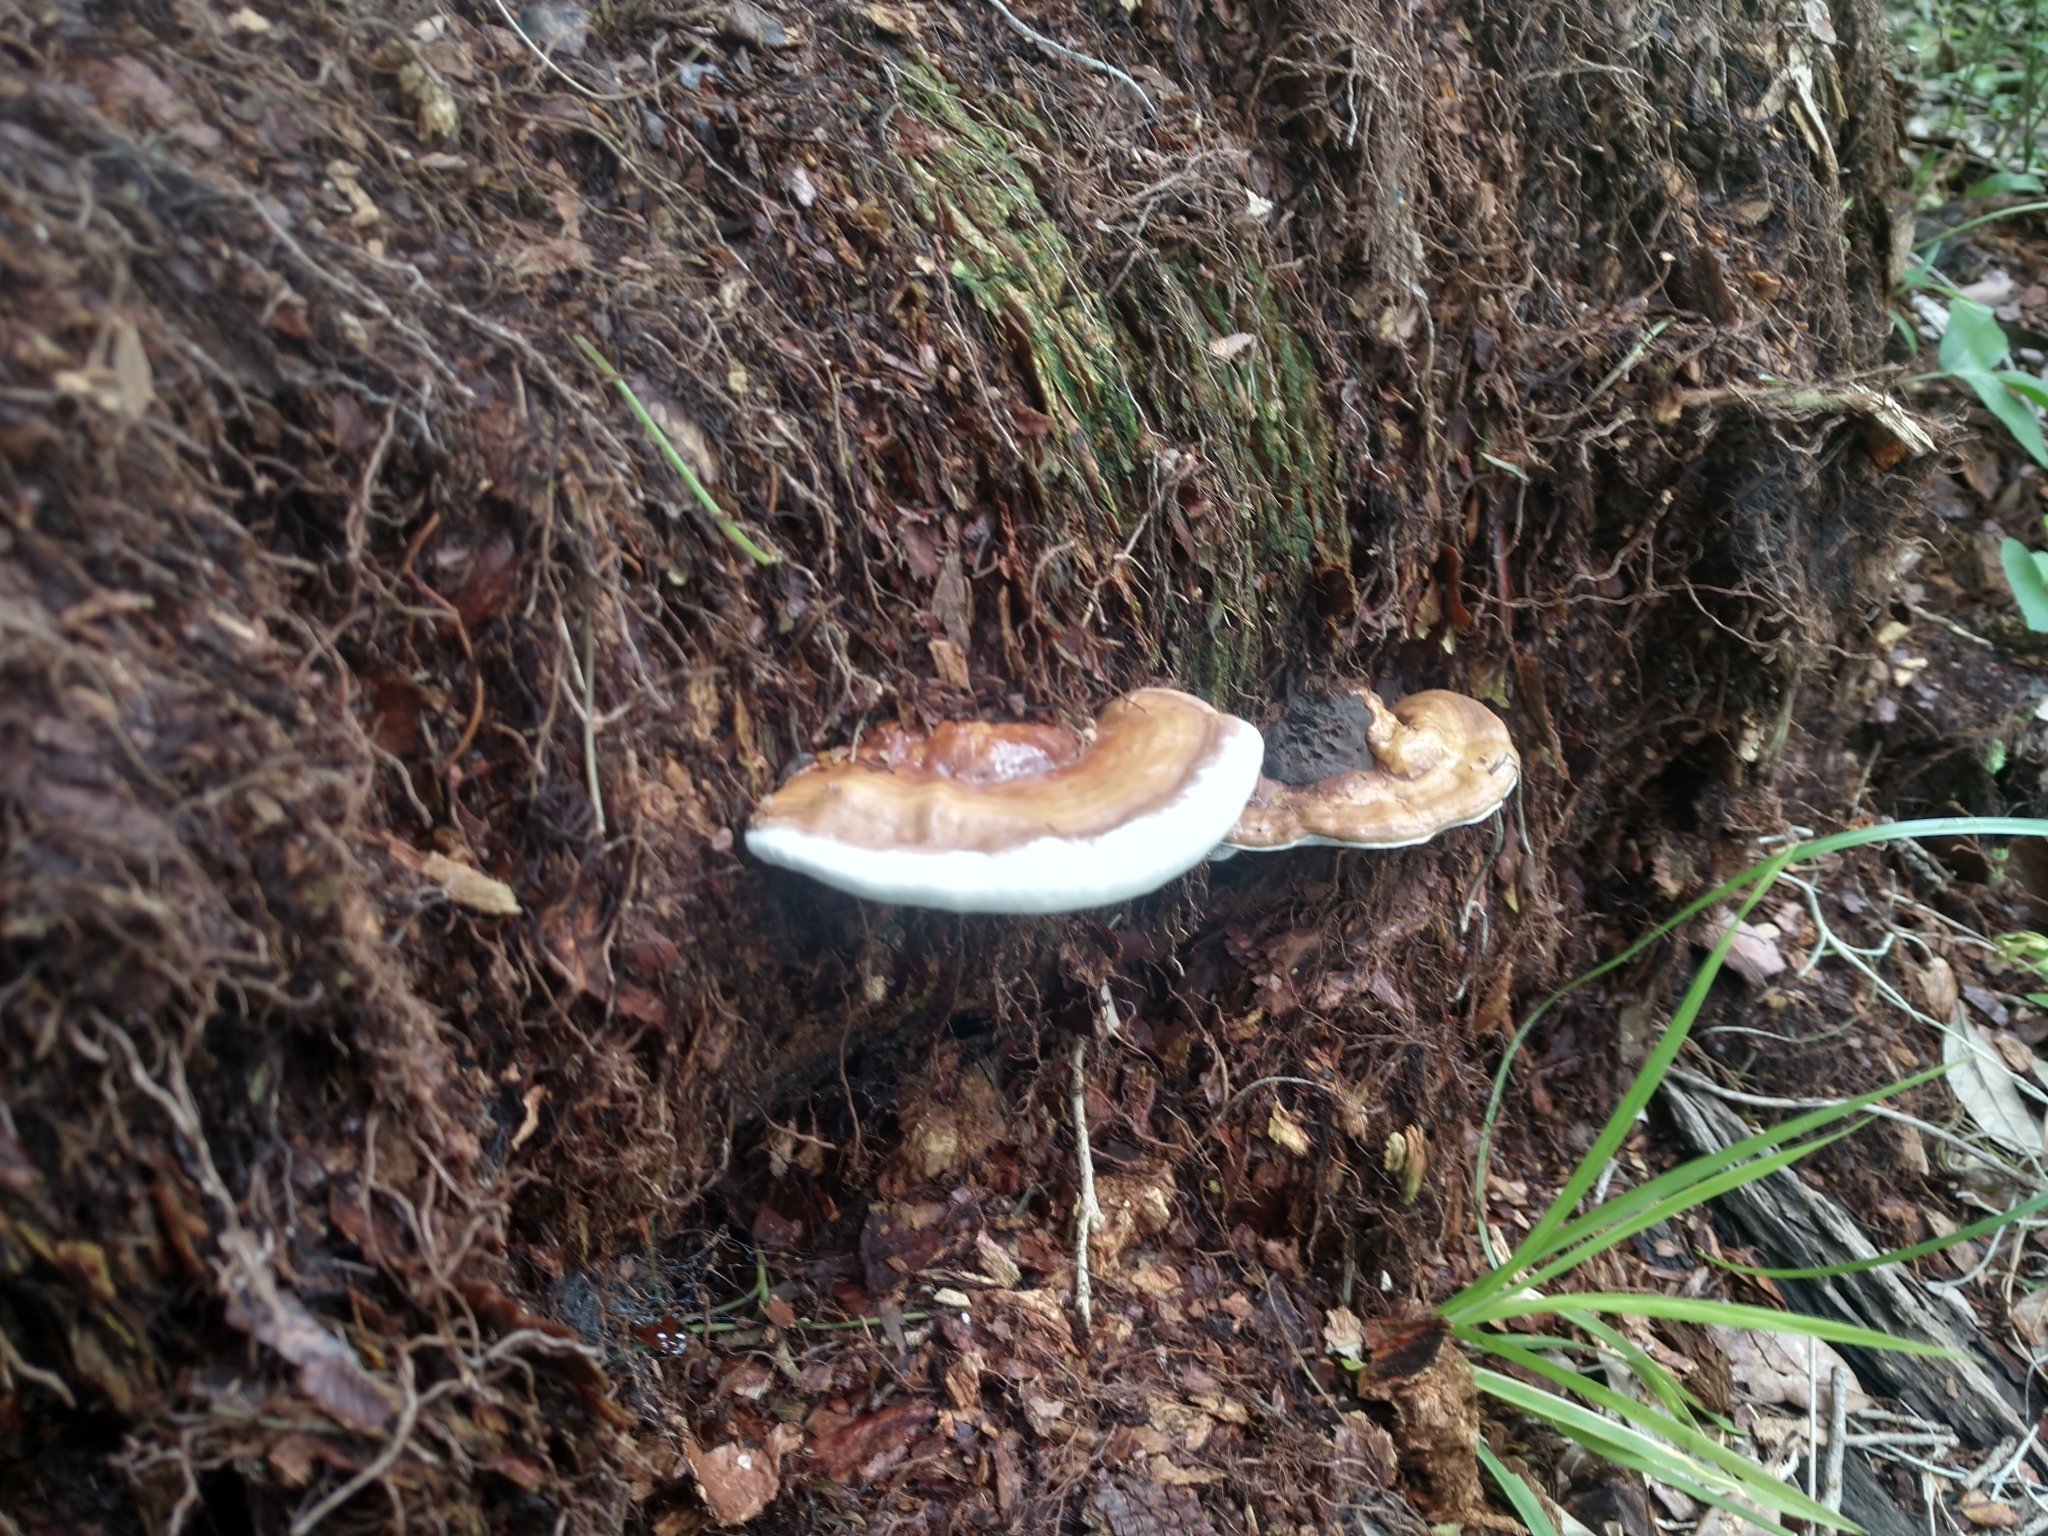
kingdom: Fungi
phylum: Basidiomycota
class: Agaricomycetes
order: Polyporales
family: Polyporaceae
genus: Ganoderma
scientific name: Ganoderma zonatum
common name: Ganoderma butt rot
